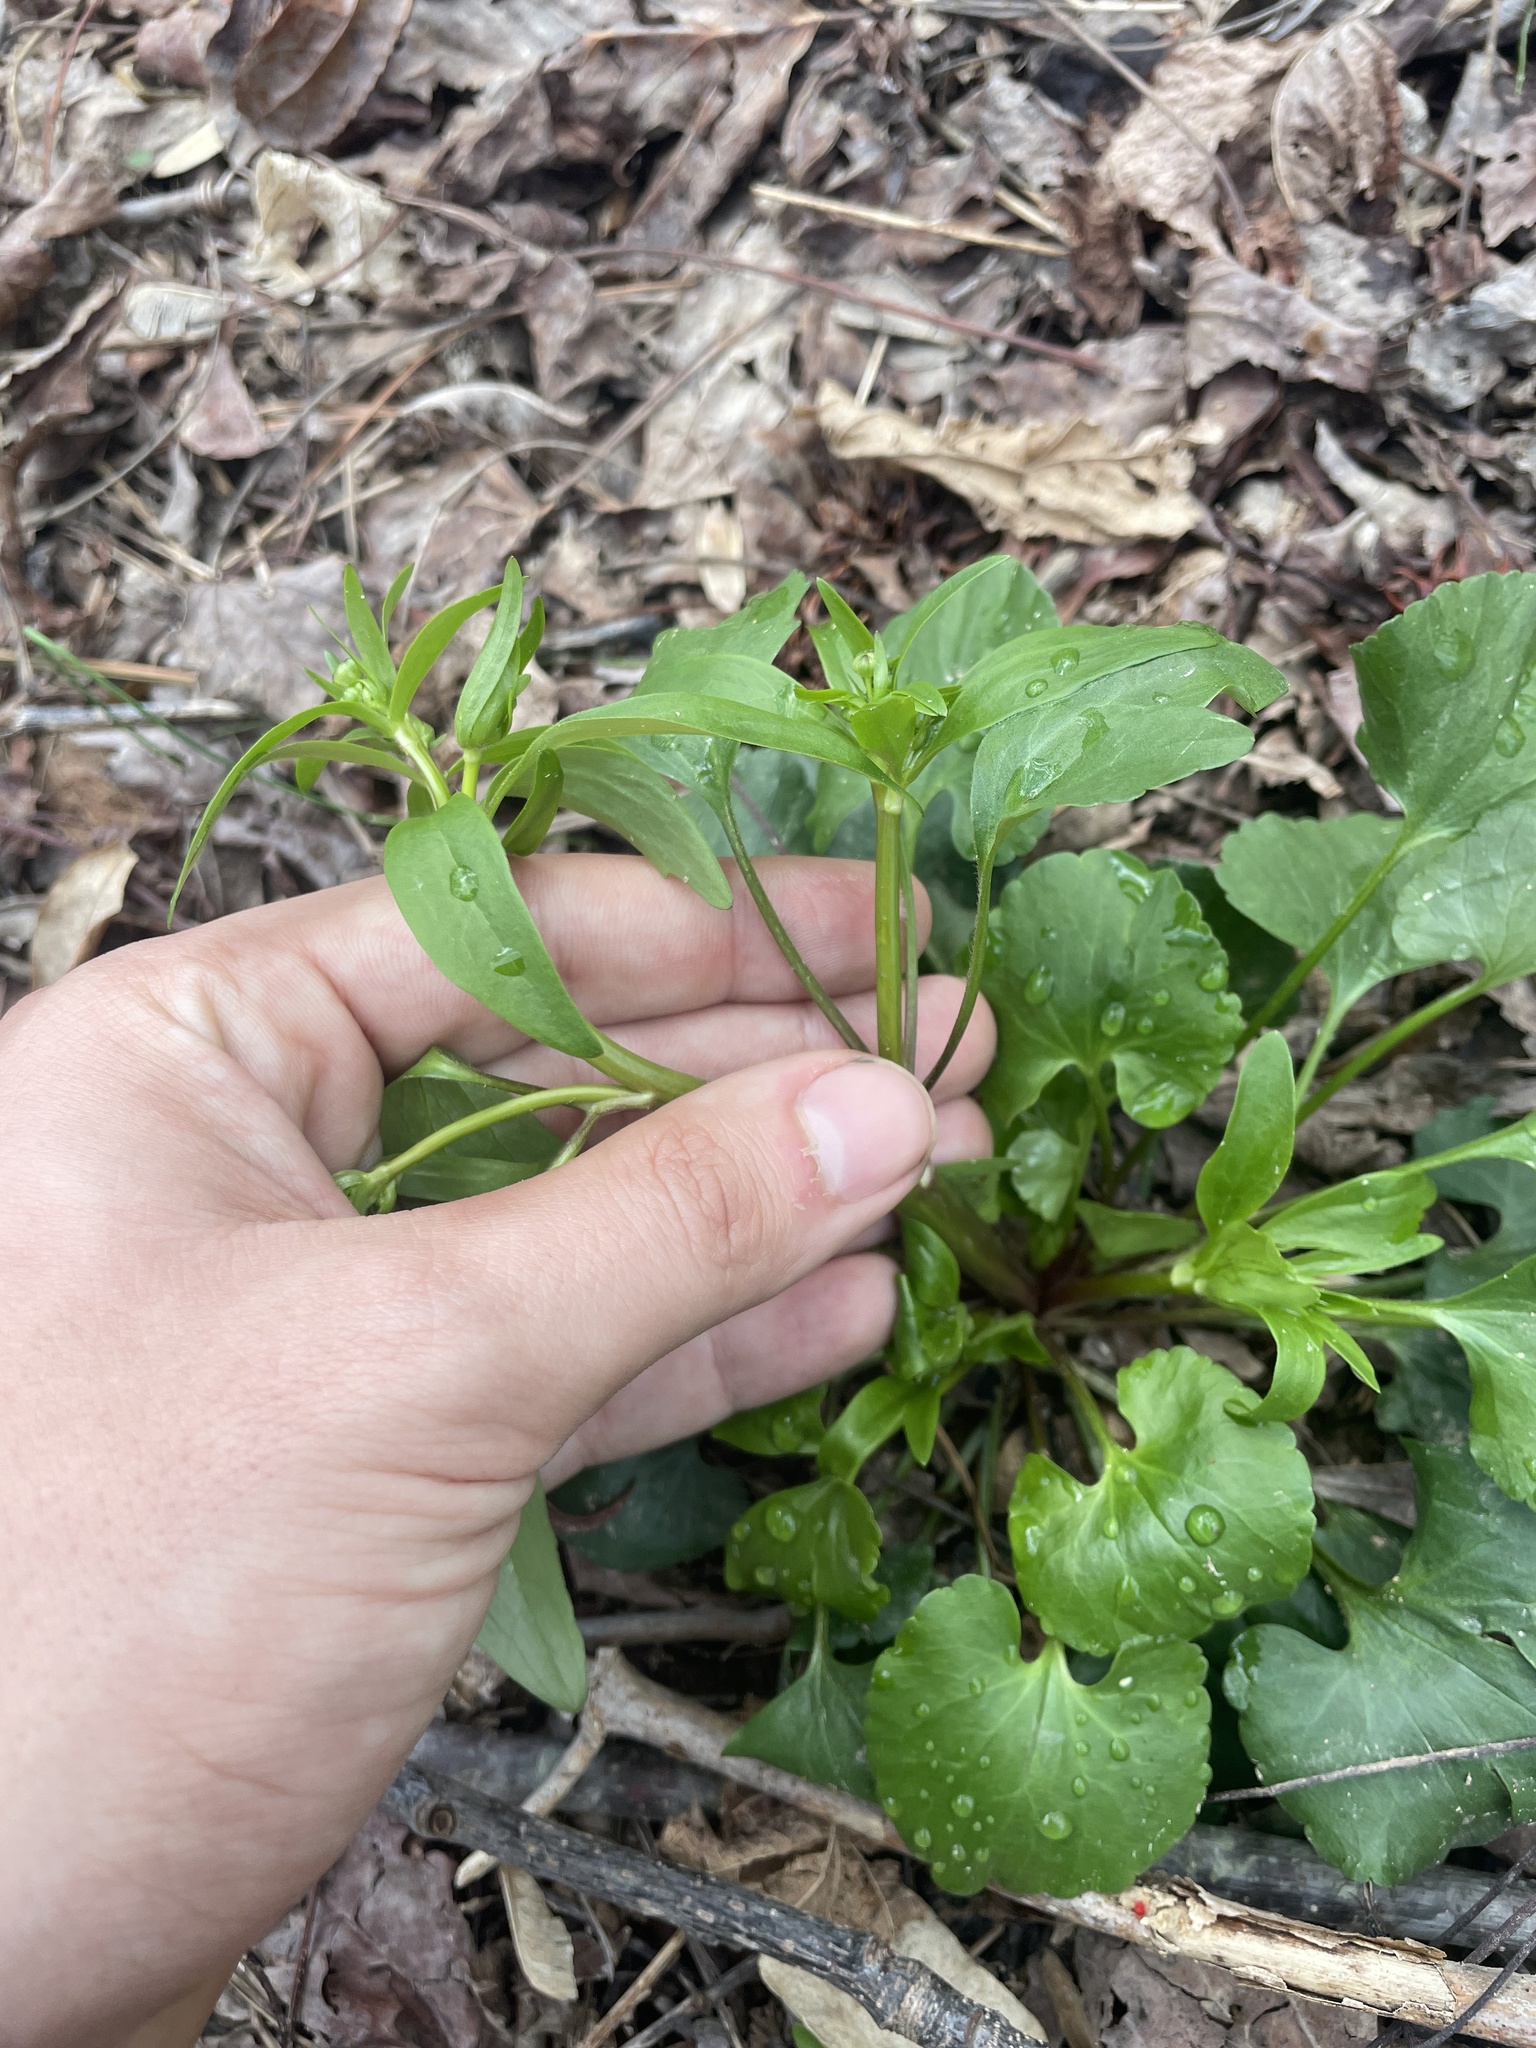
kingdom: Plantae
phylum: Tracheophyta
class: Magnoliopsida
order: Ranunculales
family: Ranunculaceae
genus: Ranunculus
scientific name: Ranunculus abortivus
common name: Early wood buttercup
